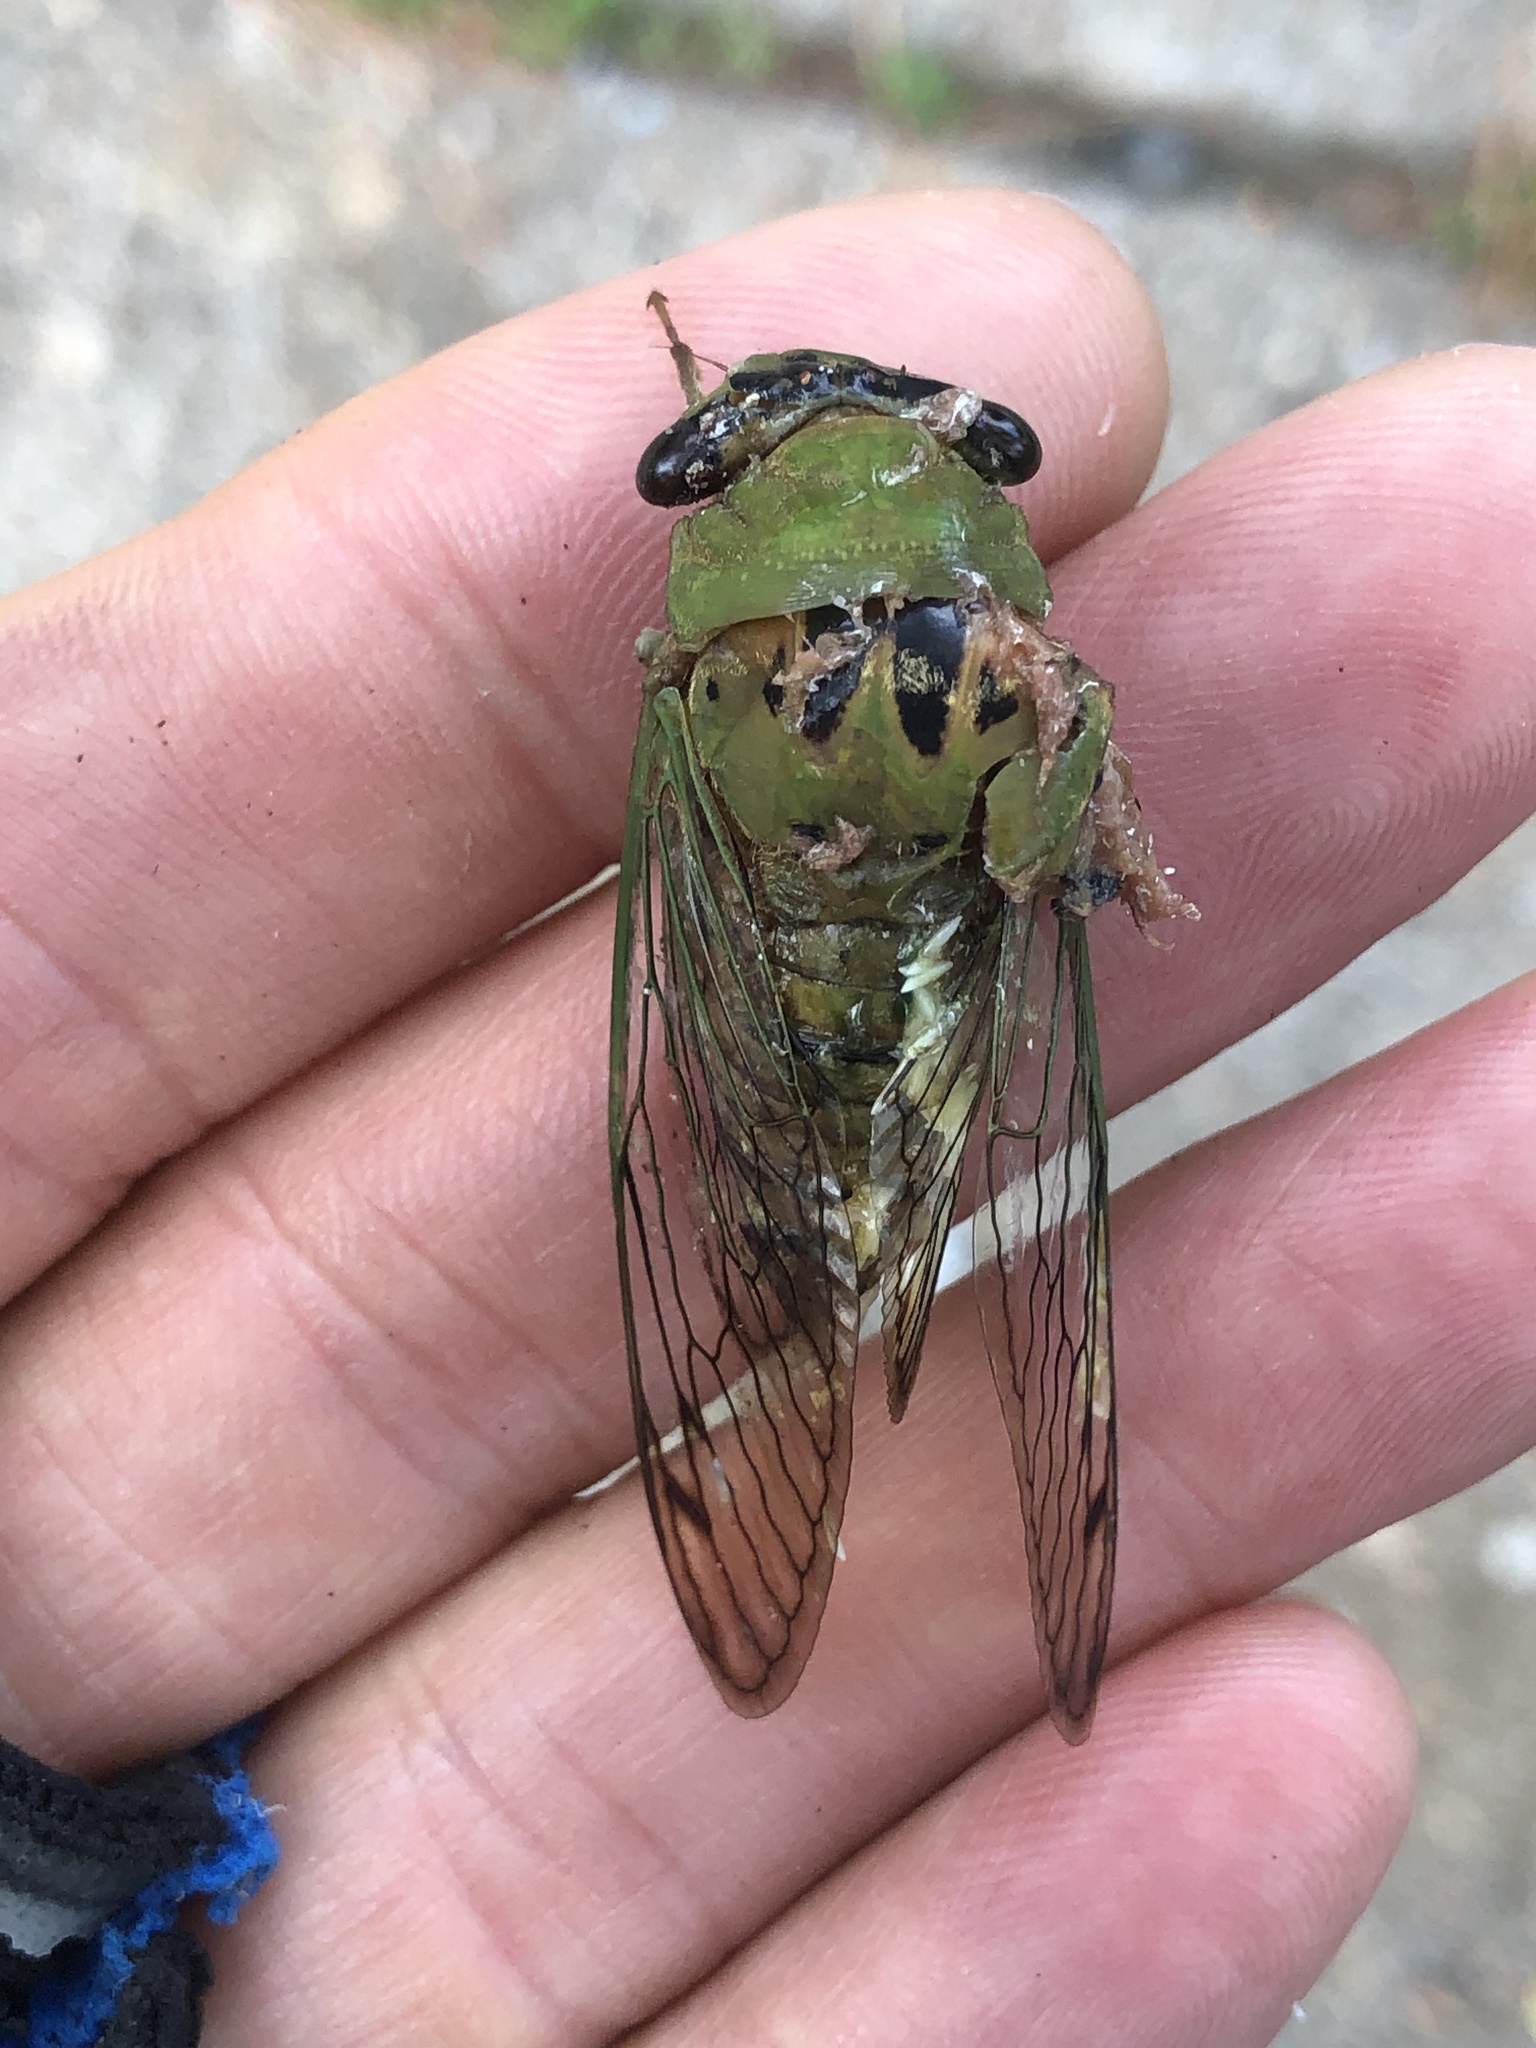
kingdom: Animalia
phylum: Arthropoda
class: Insecta
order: Hemiptera
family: Cicadidae
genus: Neotibicen
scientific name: Neotibicen superbus
